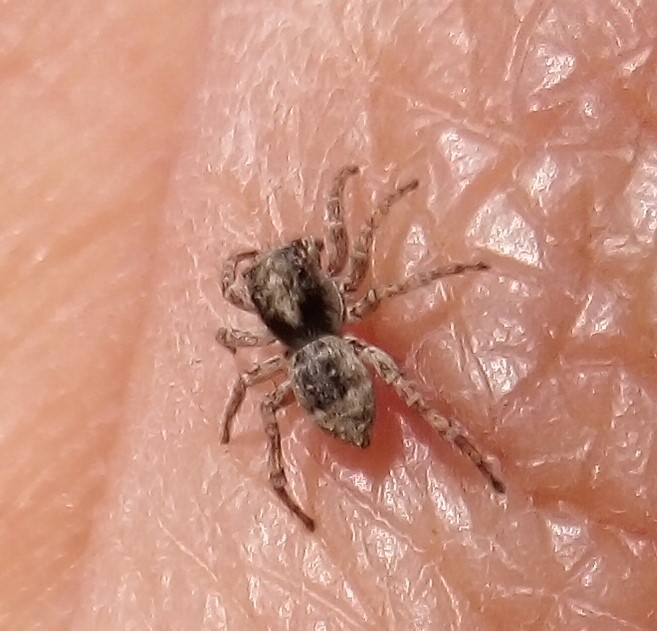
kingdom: Animalia
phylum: Arthropoda
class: Arachnida
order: Araneae
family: Salticidae
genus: Attulus
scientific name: Attulus fasciger
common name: Asiatic wall jumping spider
